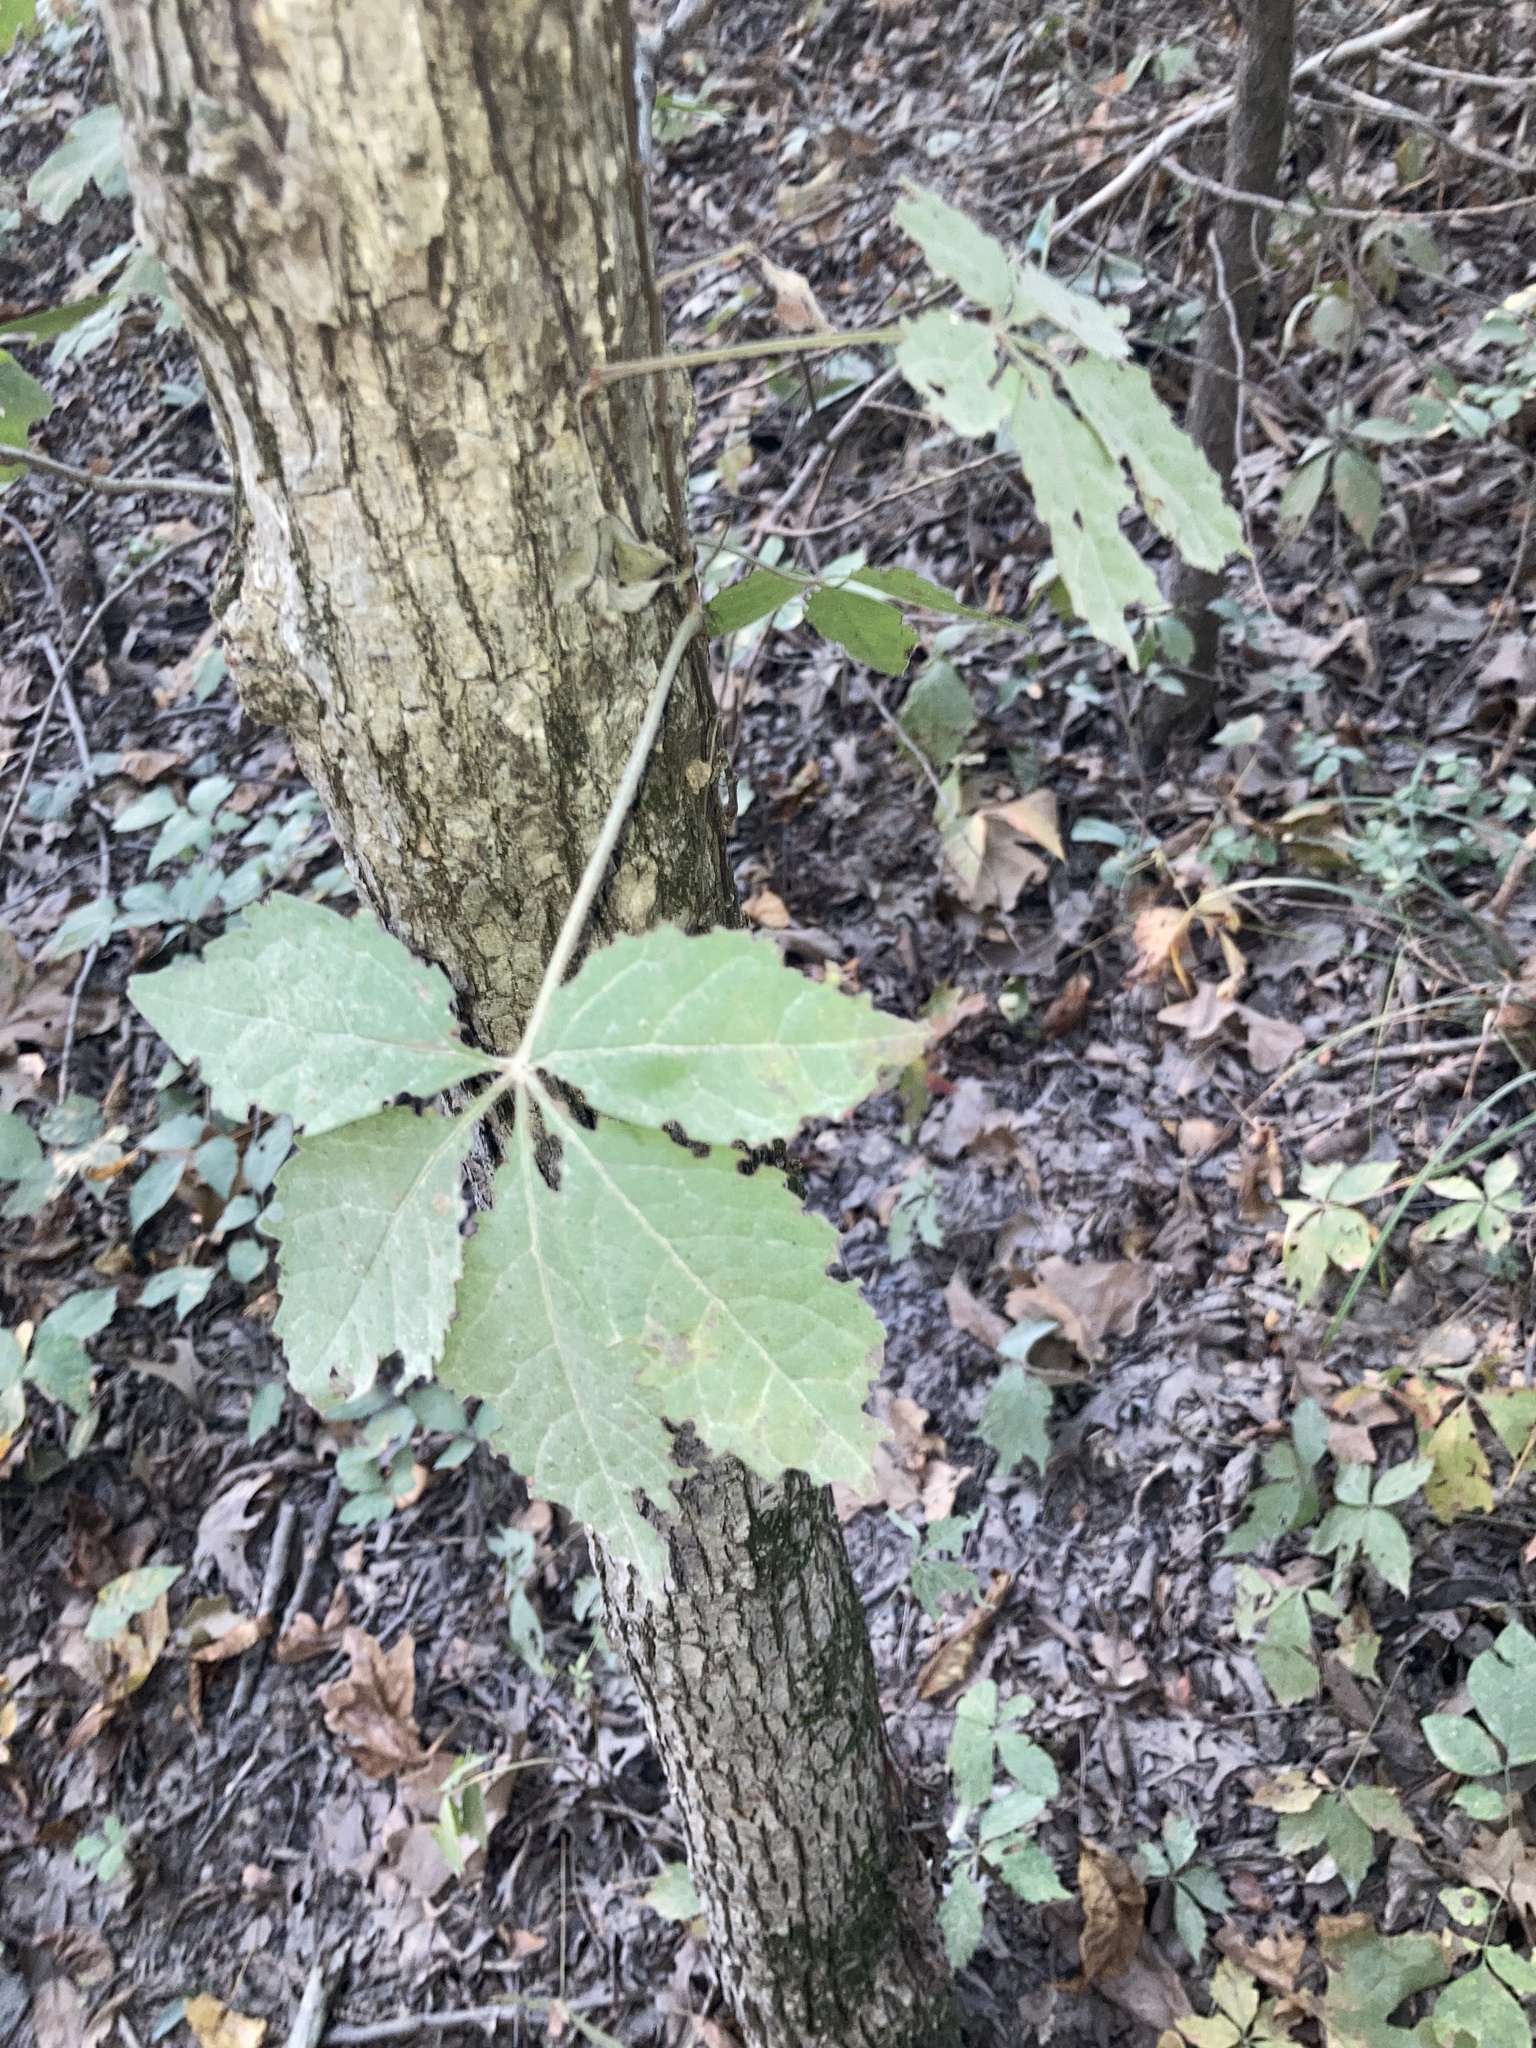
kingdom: Plantae
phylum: Tracheophyta
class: Magnoliopsida
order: Vitales
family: Vitaceae
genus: Parthenocissus
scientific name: Parthenocissus quinquefolia
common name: Virginia-creeper
